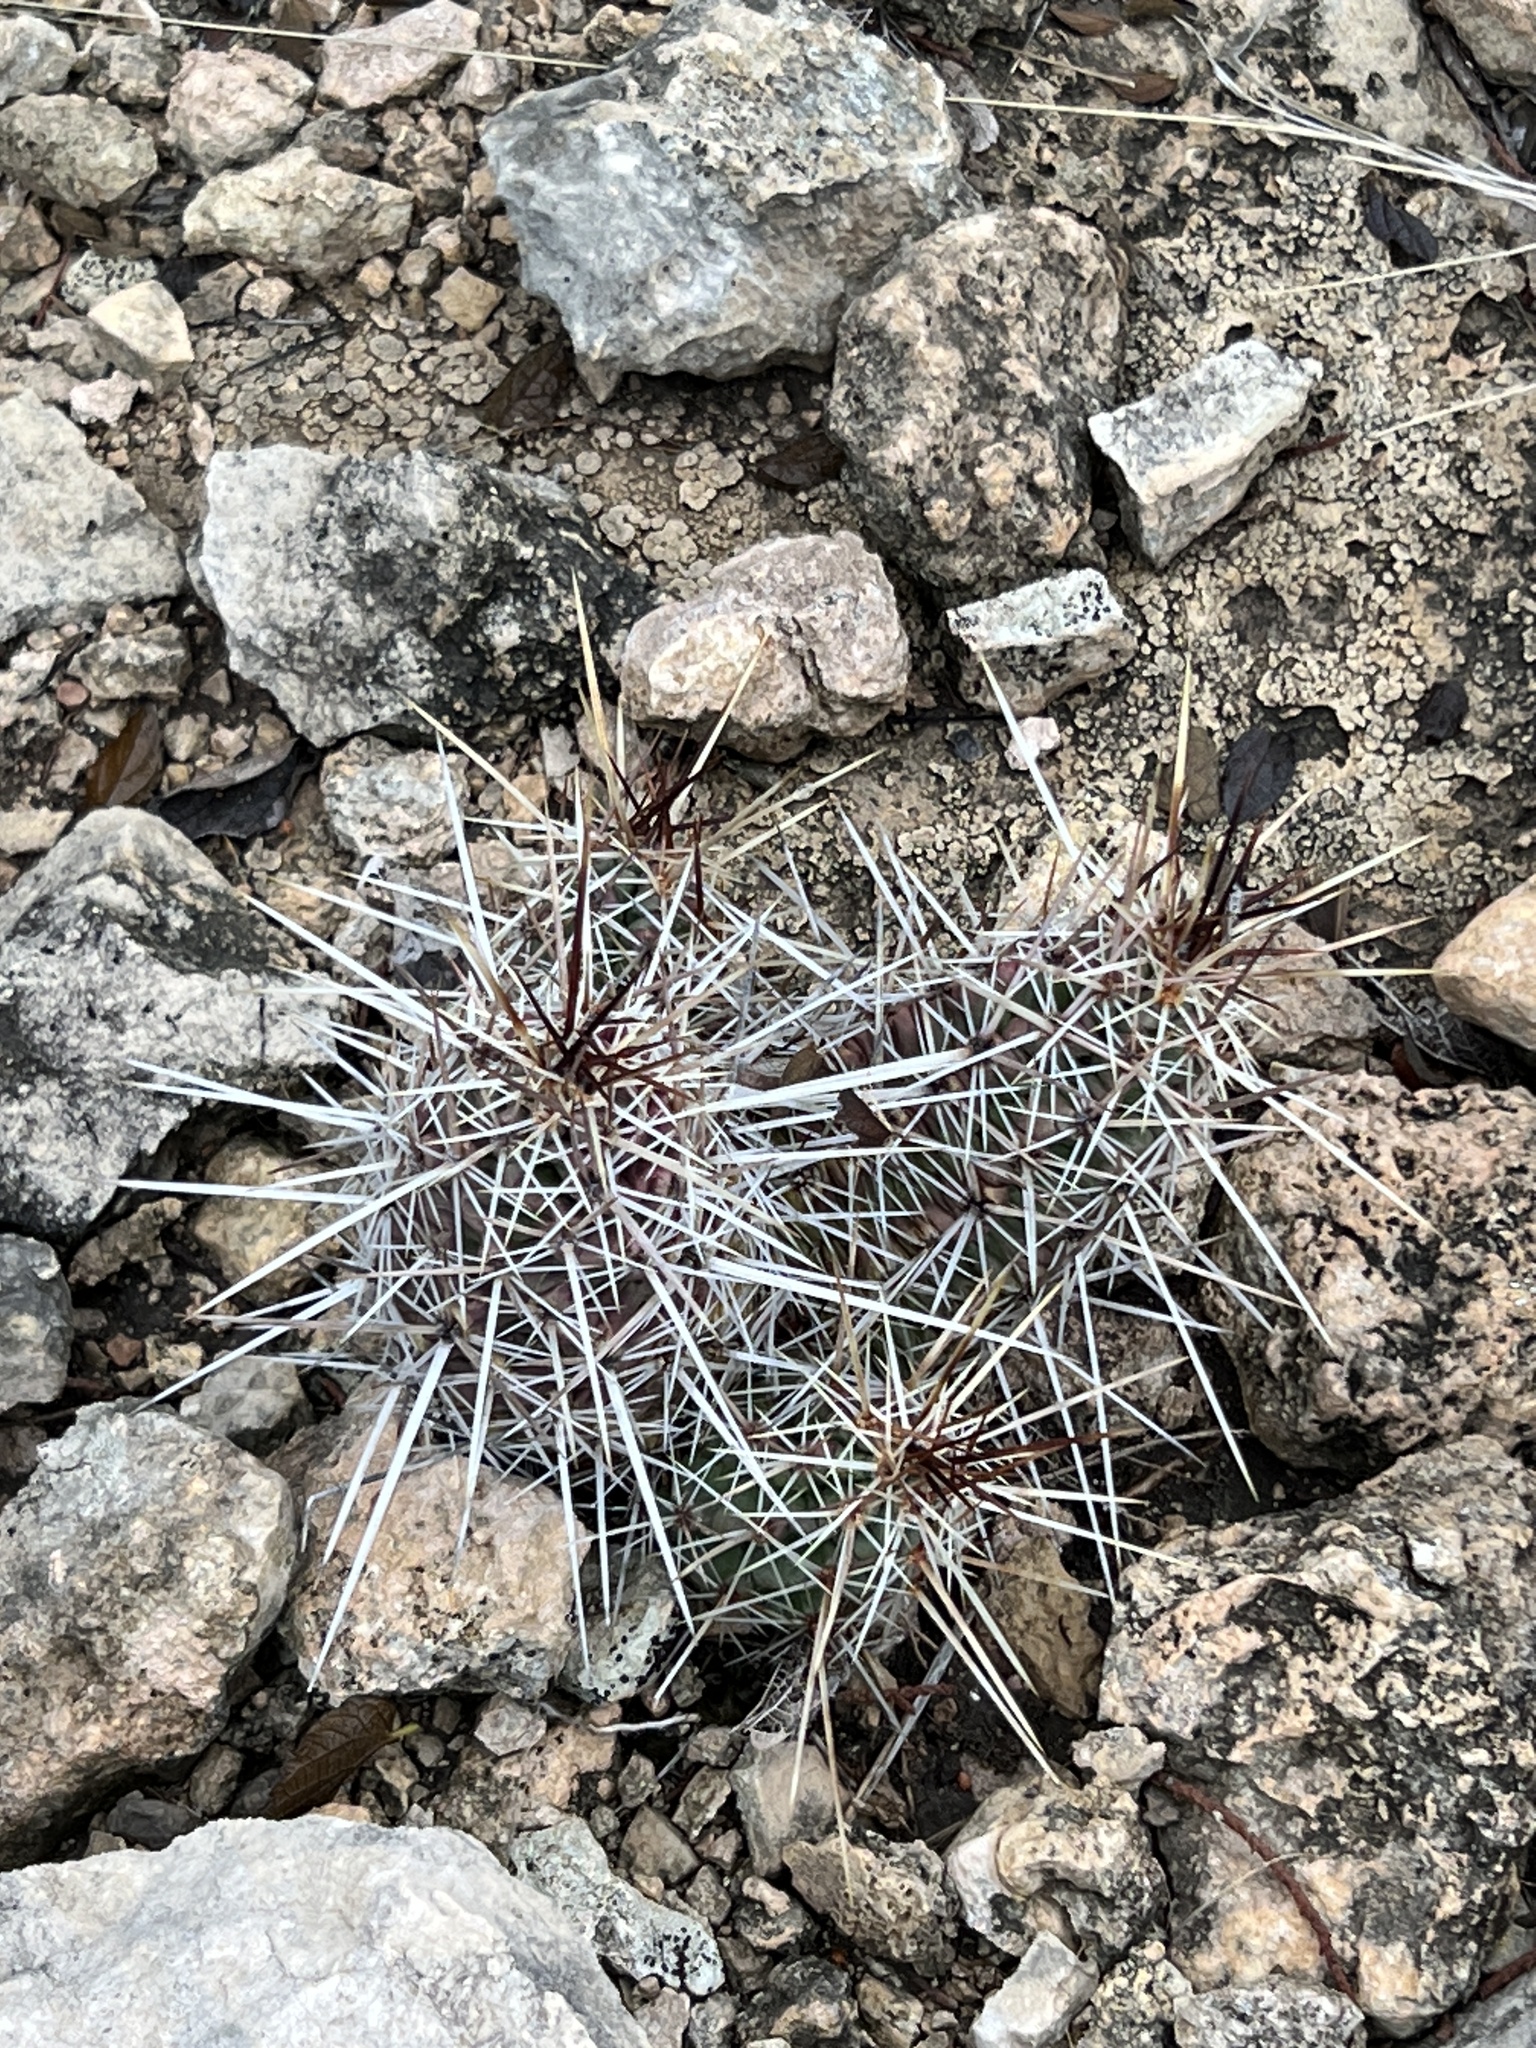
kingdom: Plantae
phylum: Tracheophyta
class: Magnoliopsida
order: Caryophyllales
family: Cactaceae
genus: Echinocereus
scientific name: Echinocereus enneacanthus
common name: Pitaya
